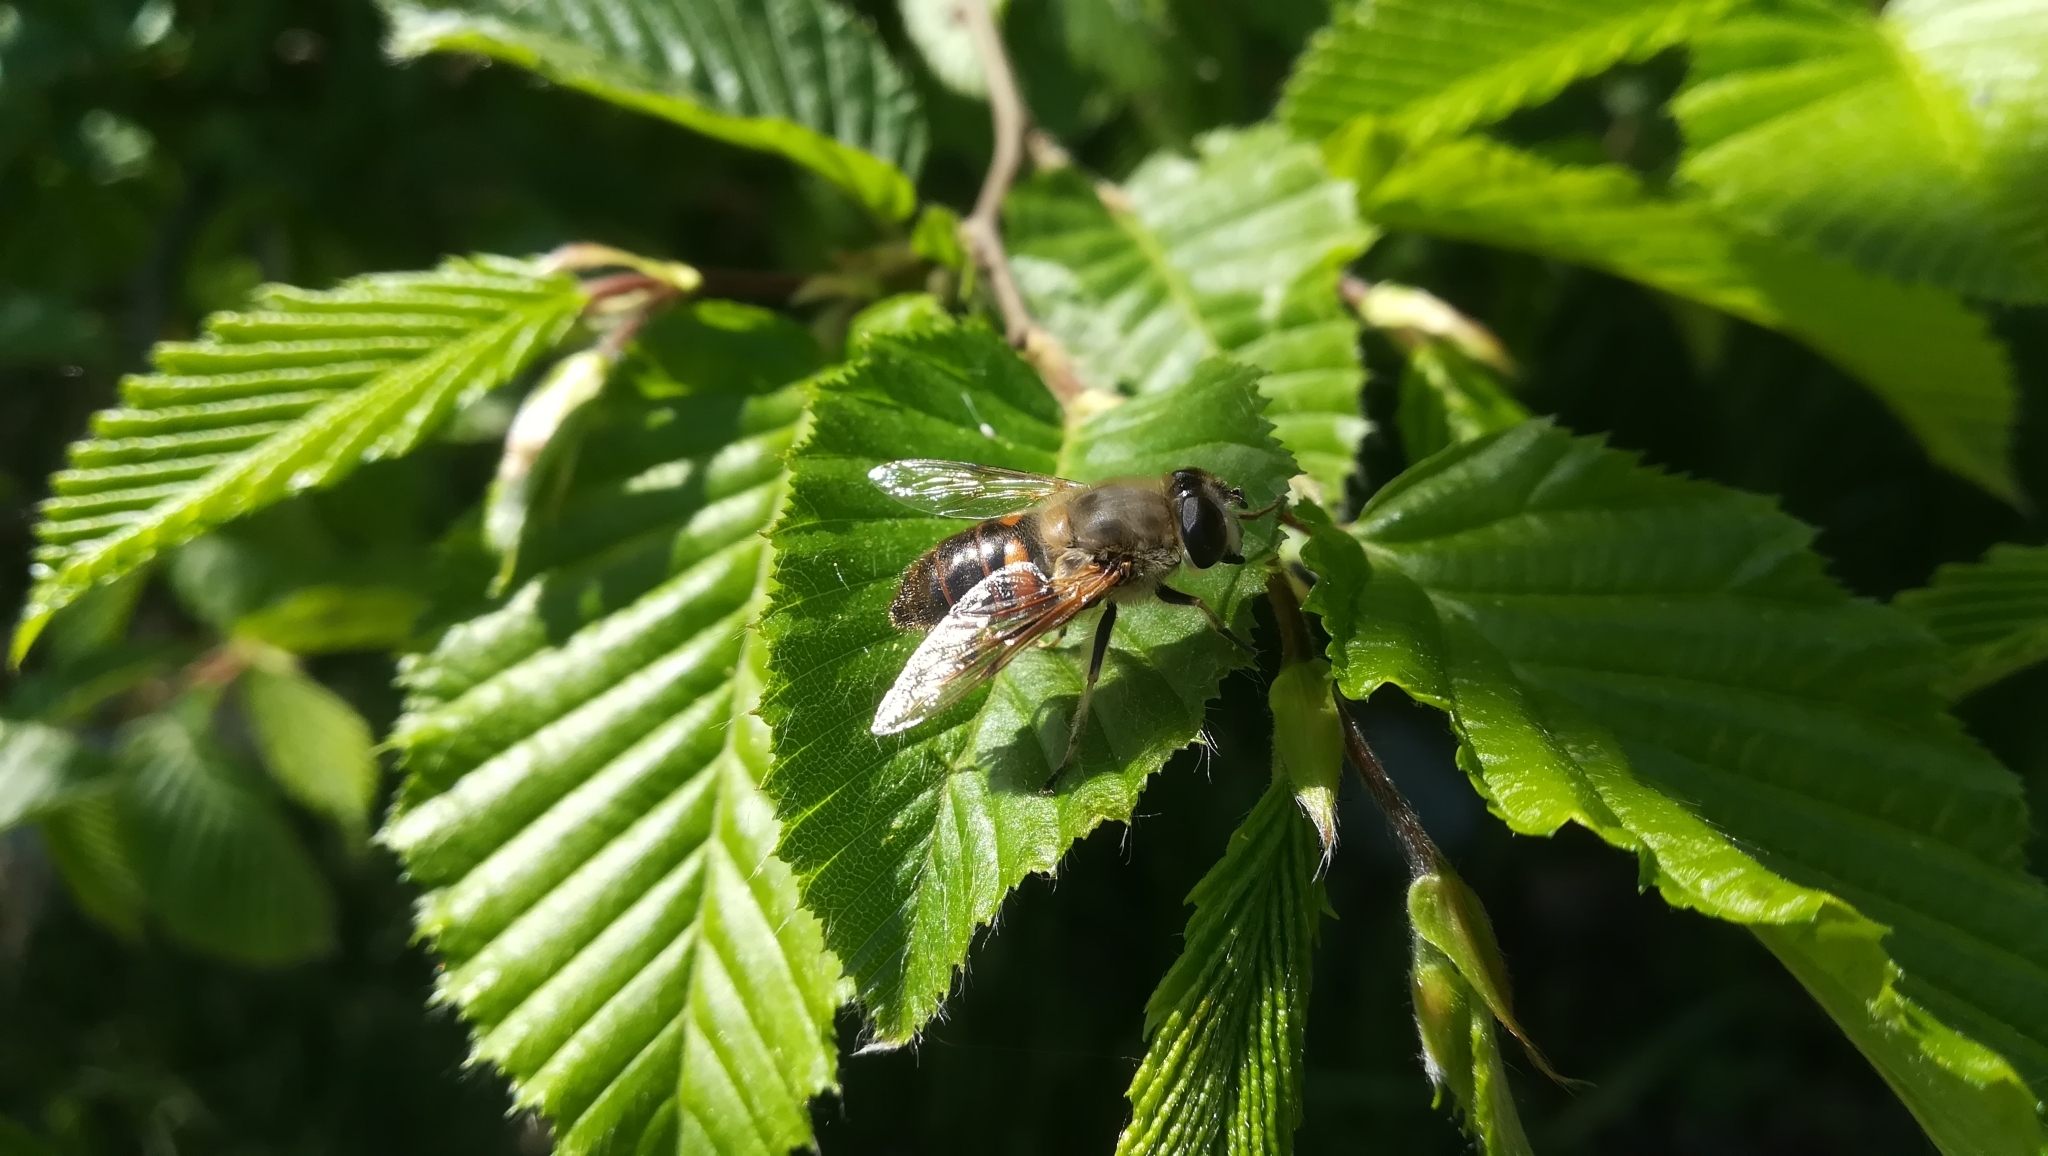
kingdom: Animalia
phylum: Arthropoda
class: Insecta
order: Diptera
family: Syrphidae
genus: Eristalis
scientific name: Eristalis tenax
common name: Drone fly
